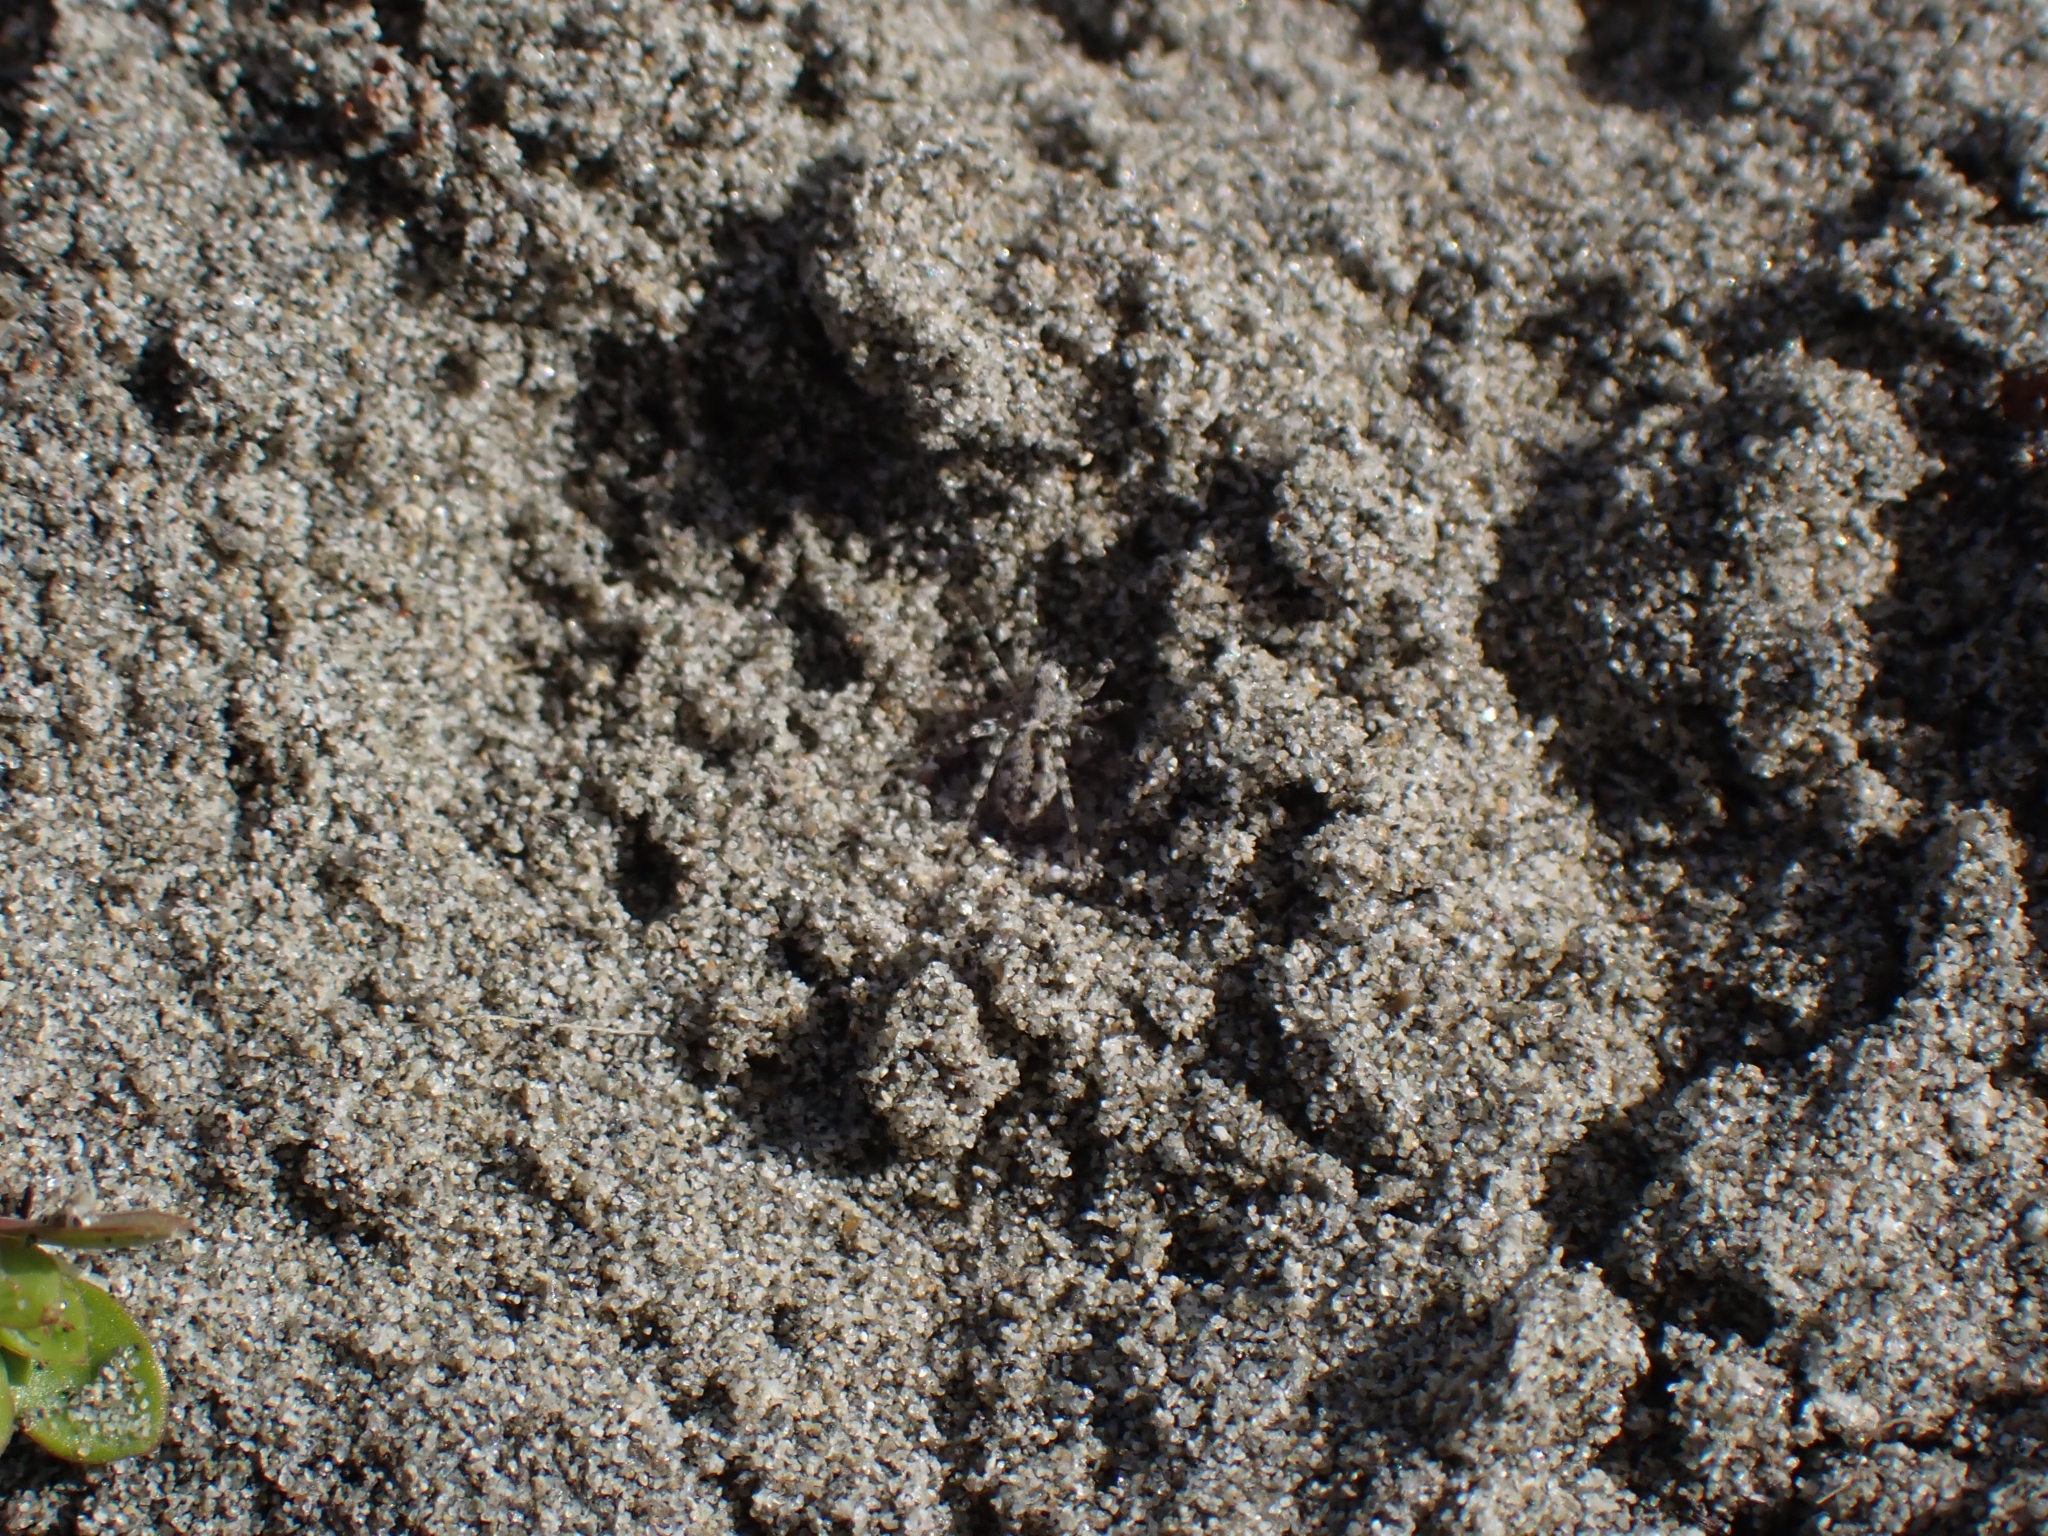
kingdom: Animalia
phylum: Arthropoda
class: Arachnida
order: Araneae
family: Lycosidae
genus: Anoteropsis
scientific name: Anoteropsis litoralis
